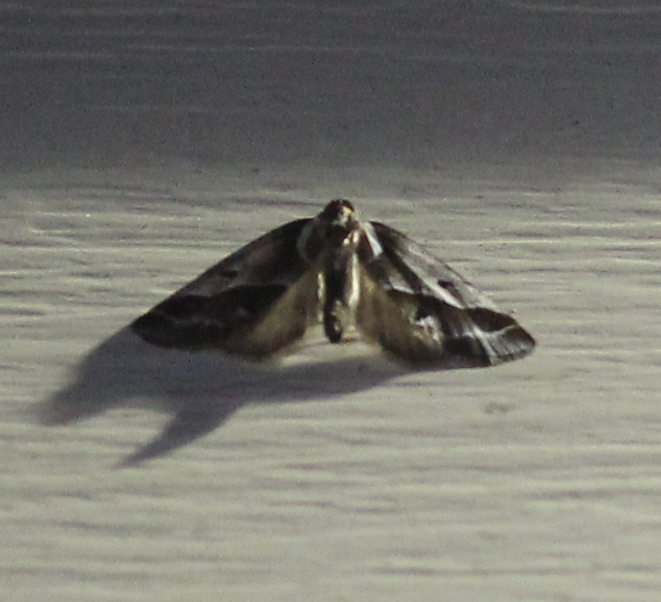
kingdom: Animalia
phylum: Arthropoda
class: Insecta
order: Lepidoptera
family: Nolidae
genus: Baileya
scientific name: Baileya doubledayi
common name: Doubleday's baileya moth
